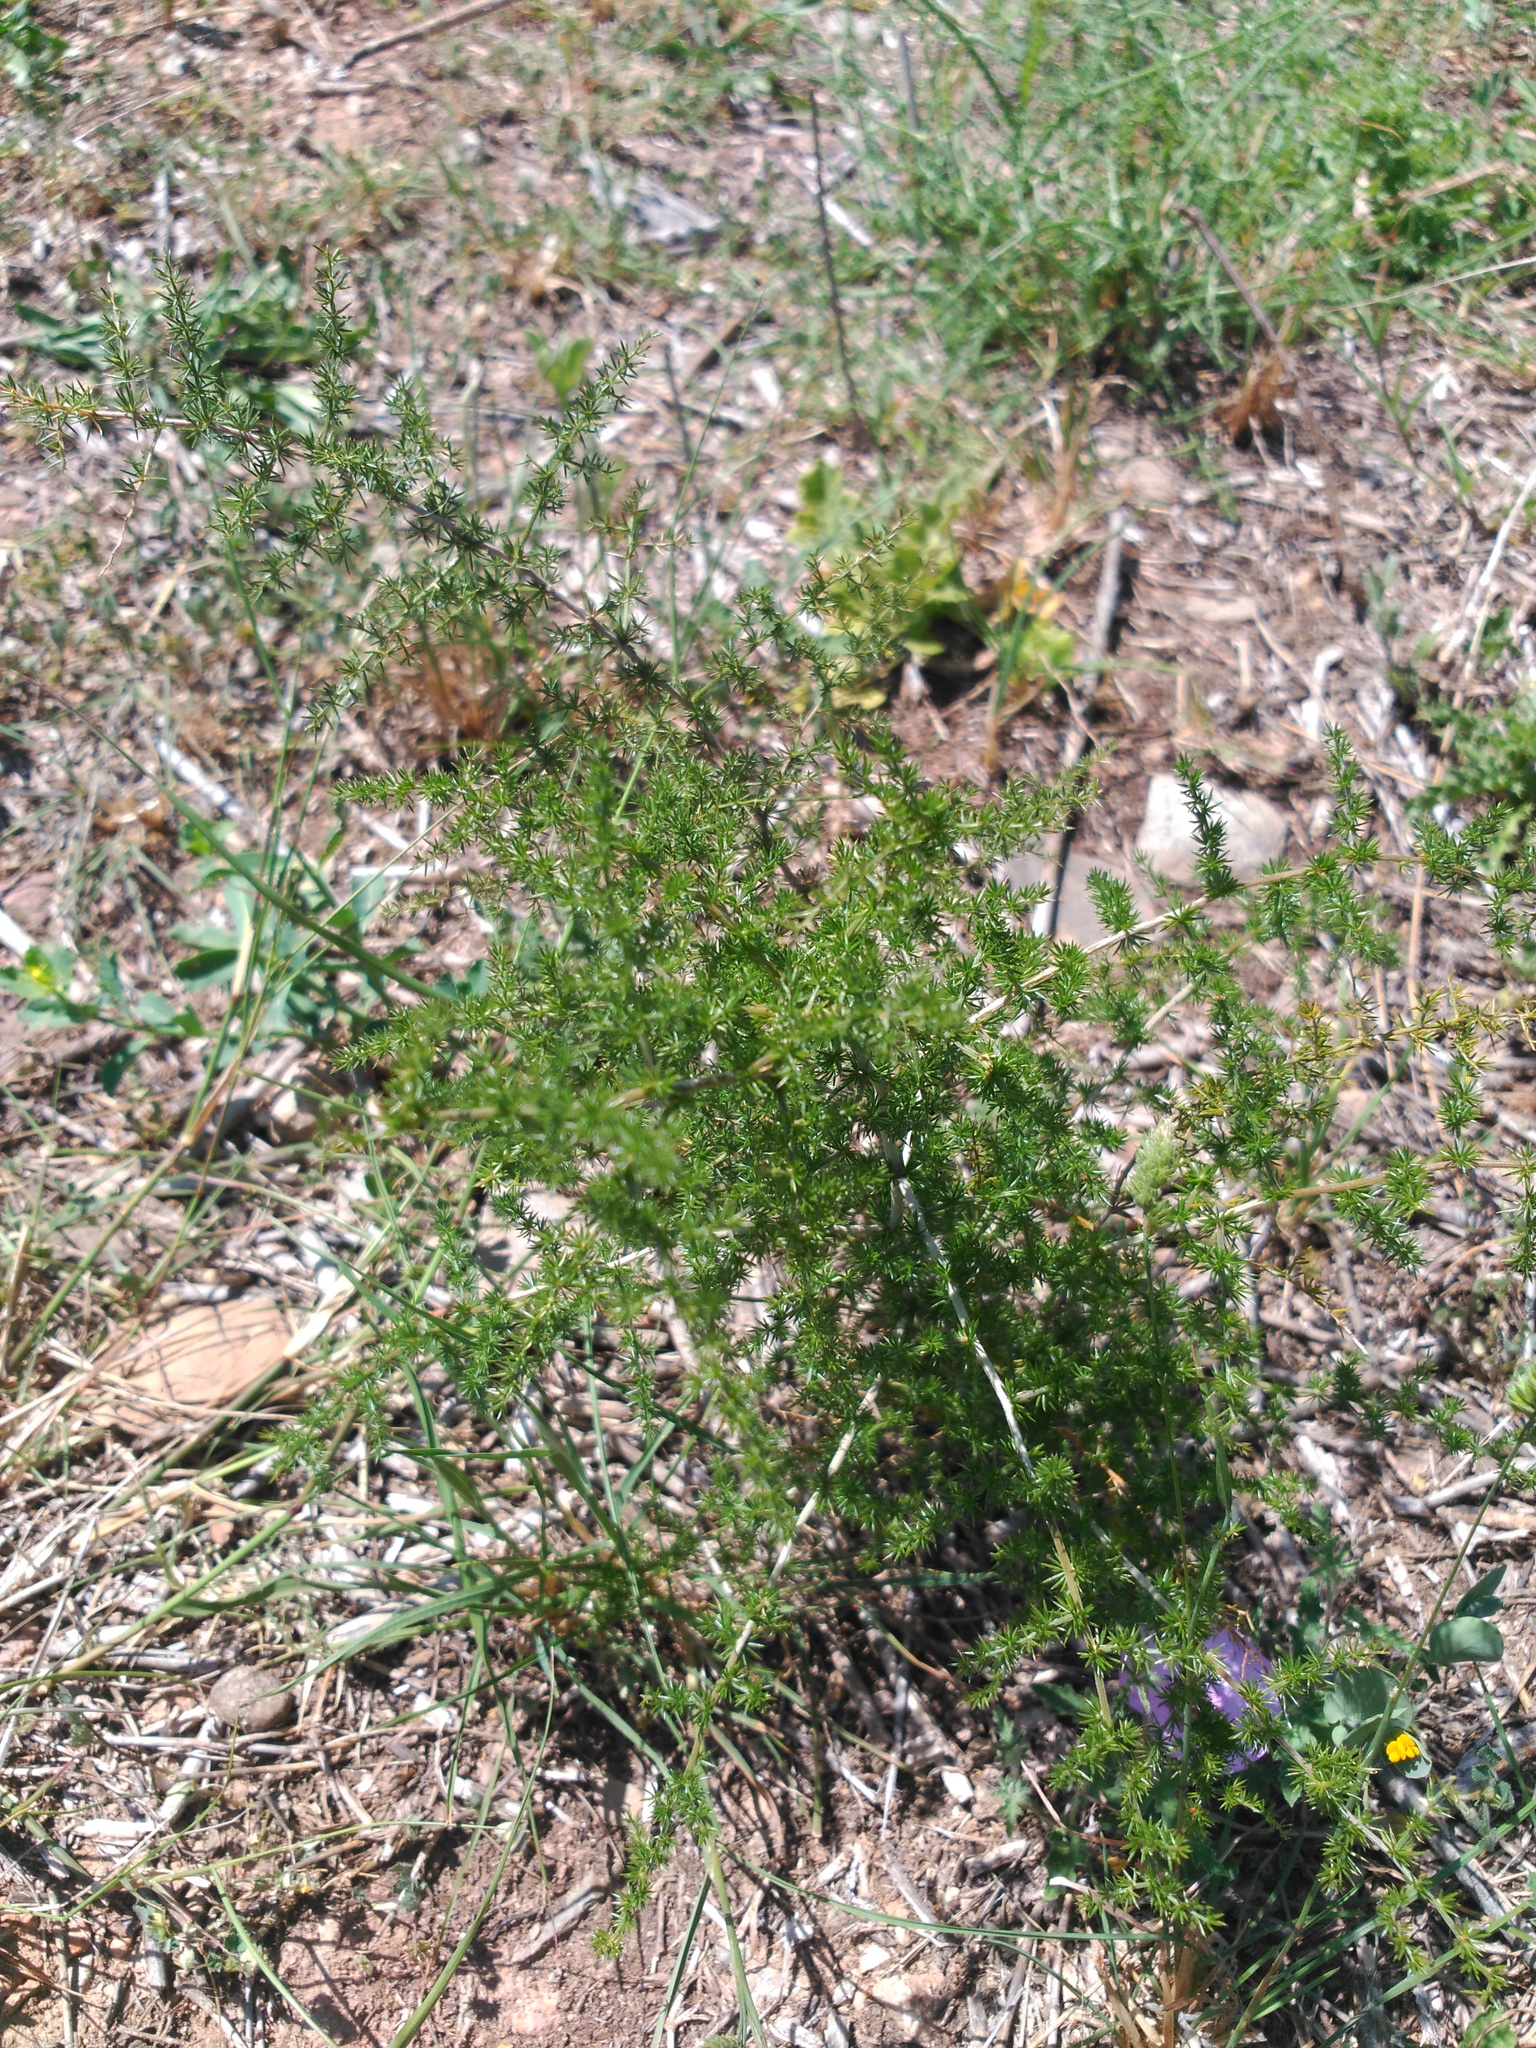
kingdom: Plantae
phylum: Tracheophyta
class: Liliopsida
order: Asparagales
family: Asparagaceae
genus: Asparagus
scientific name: Asparagus acutifolius
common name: Wild asparagus
